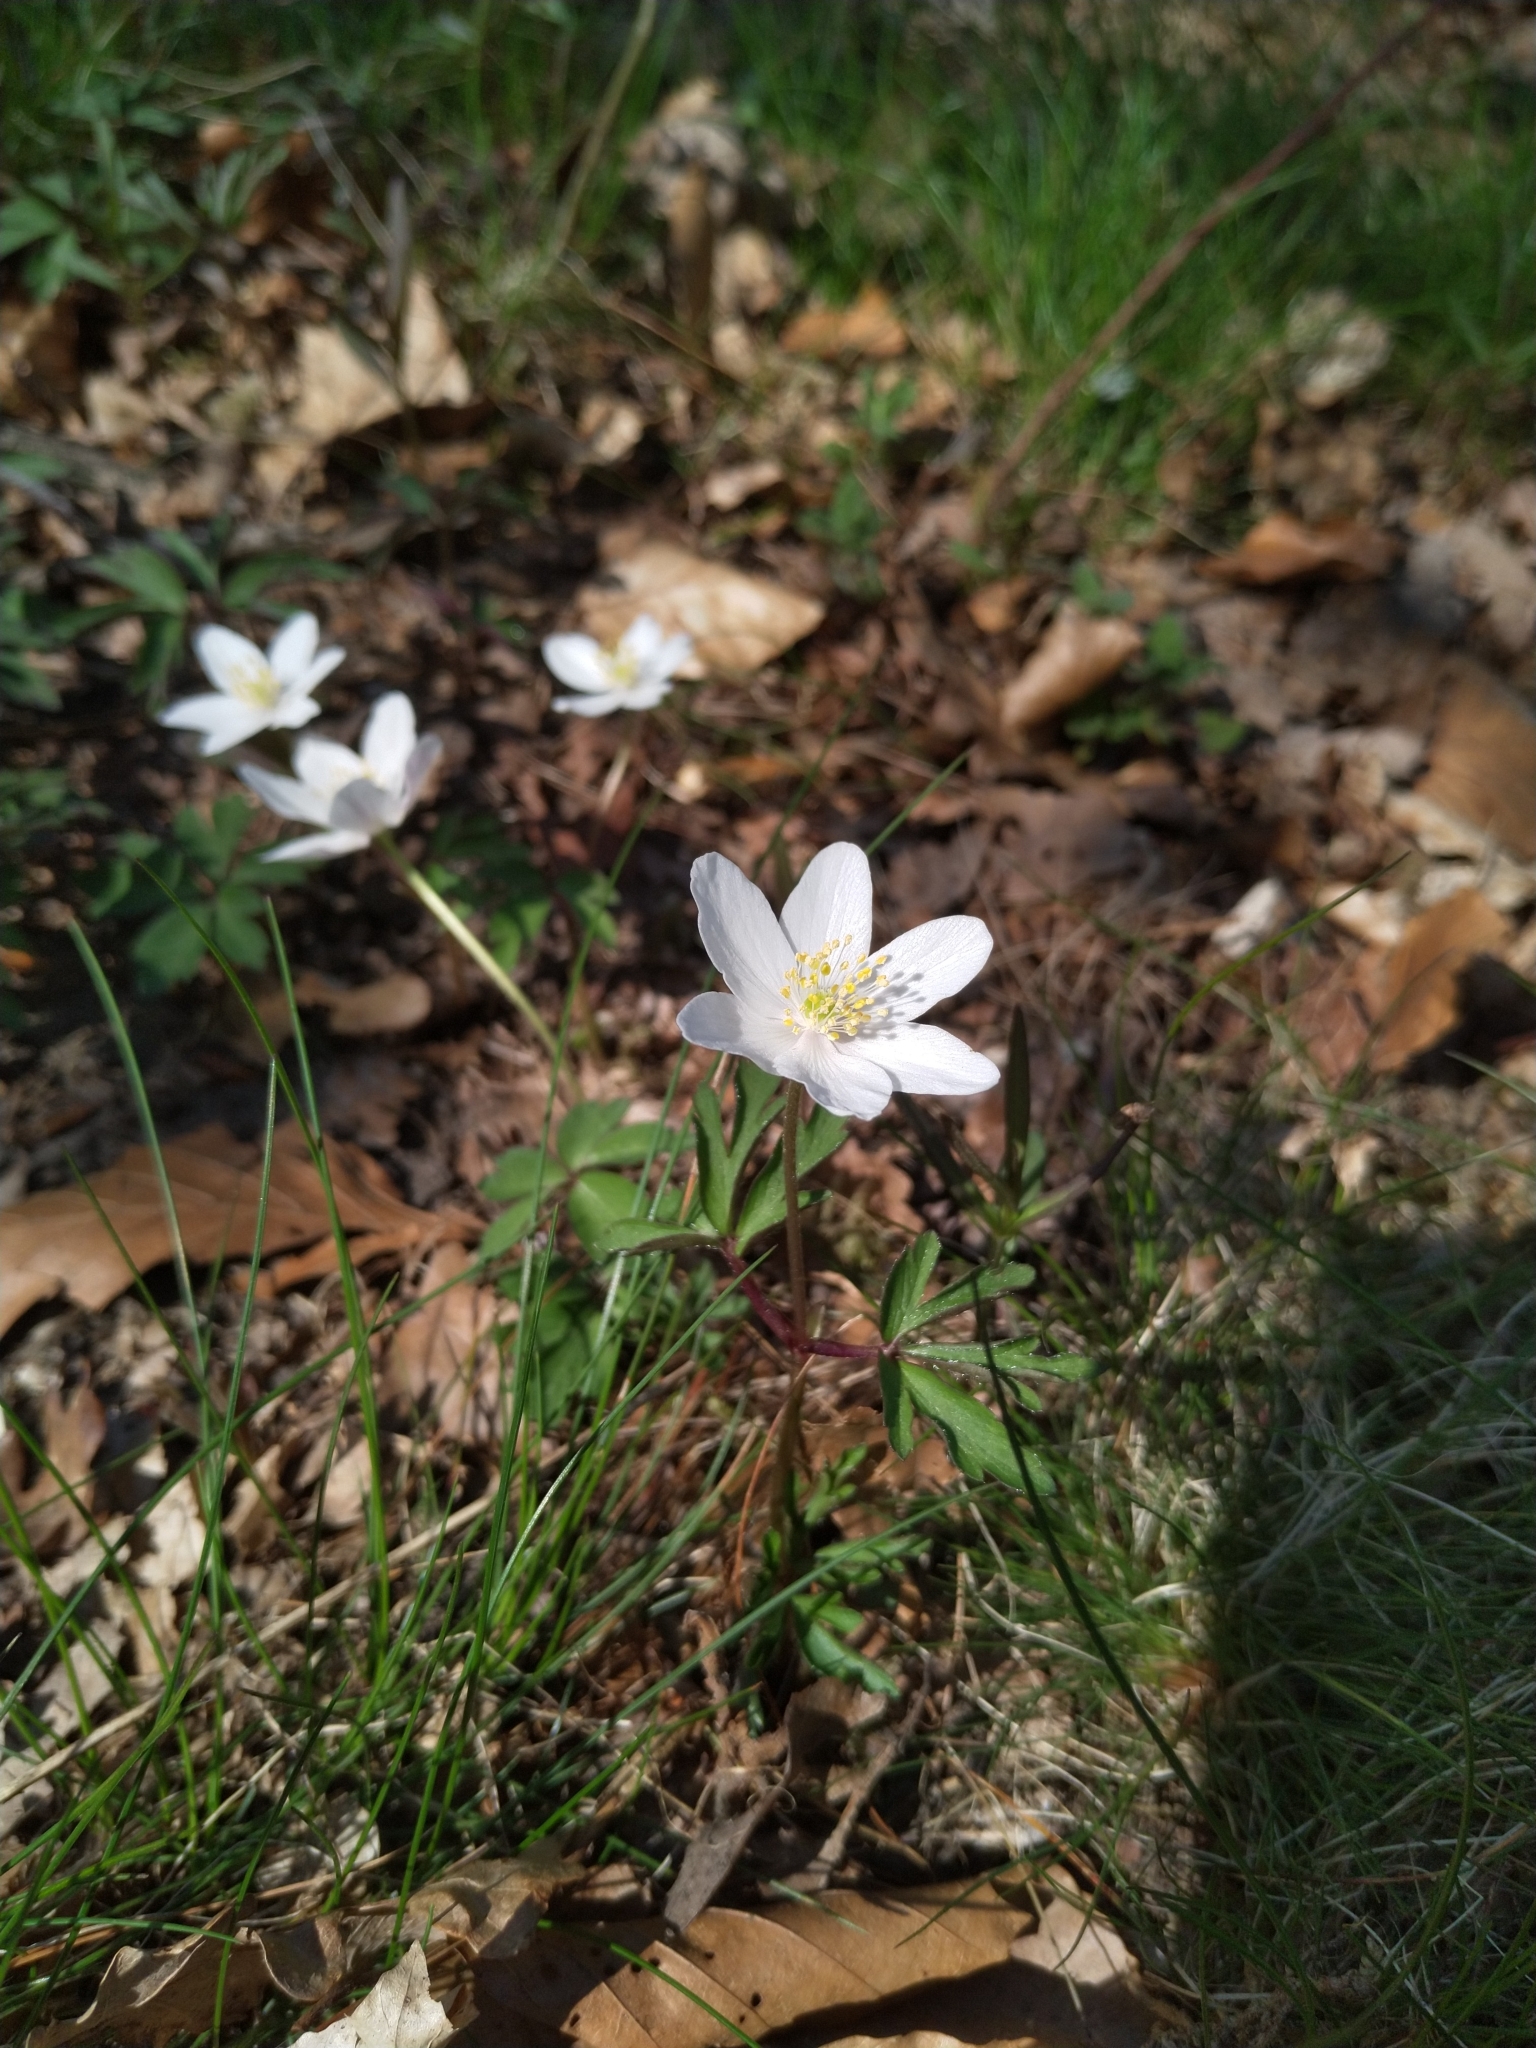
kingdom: Plantae
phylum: Tracheophyta
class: Magnoliopsida
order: Ranunculales
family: Ranunculaceae
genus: Anemone
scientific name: Anemone nemorosa
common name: Wood anemone
